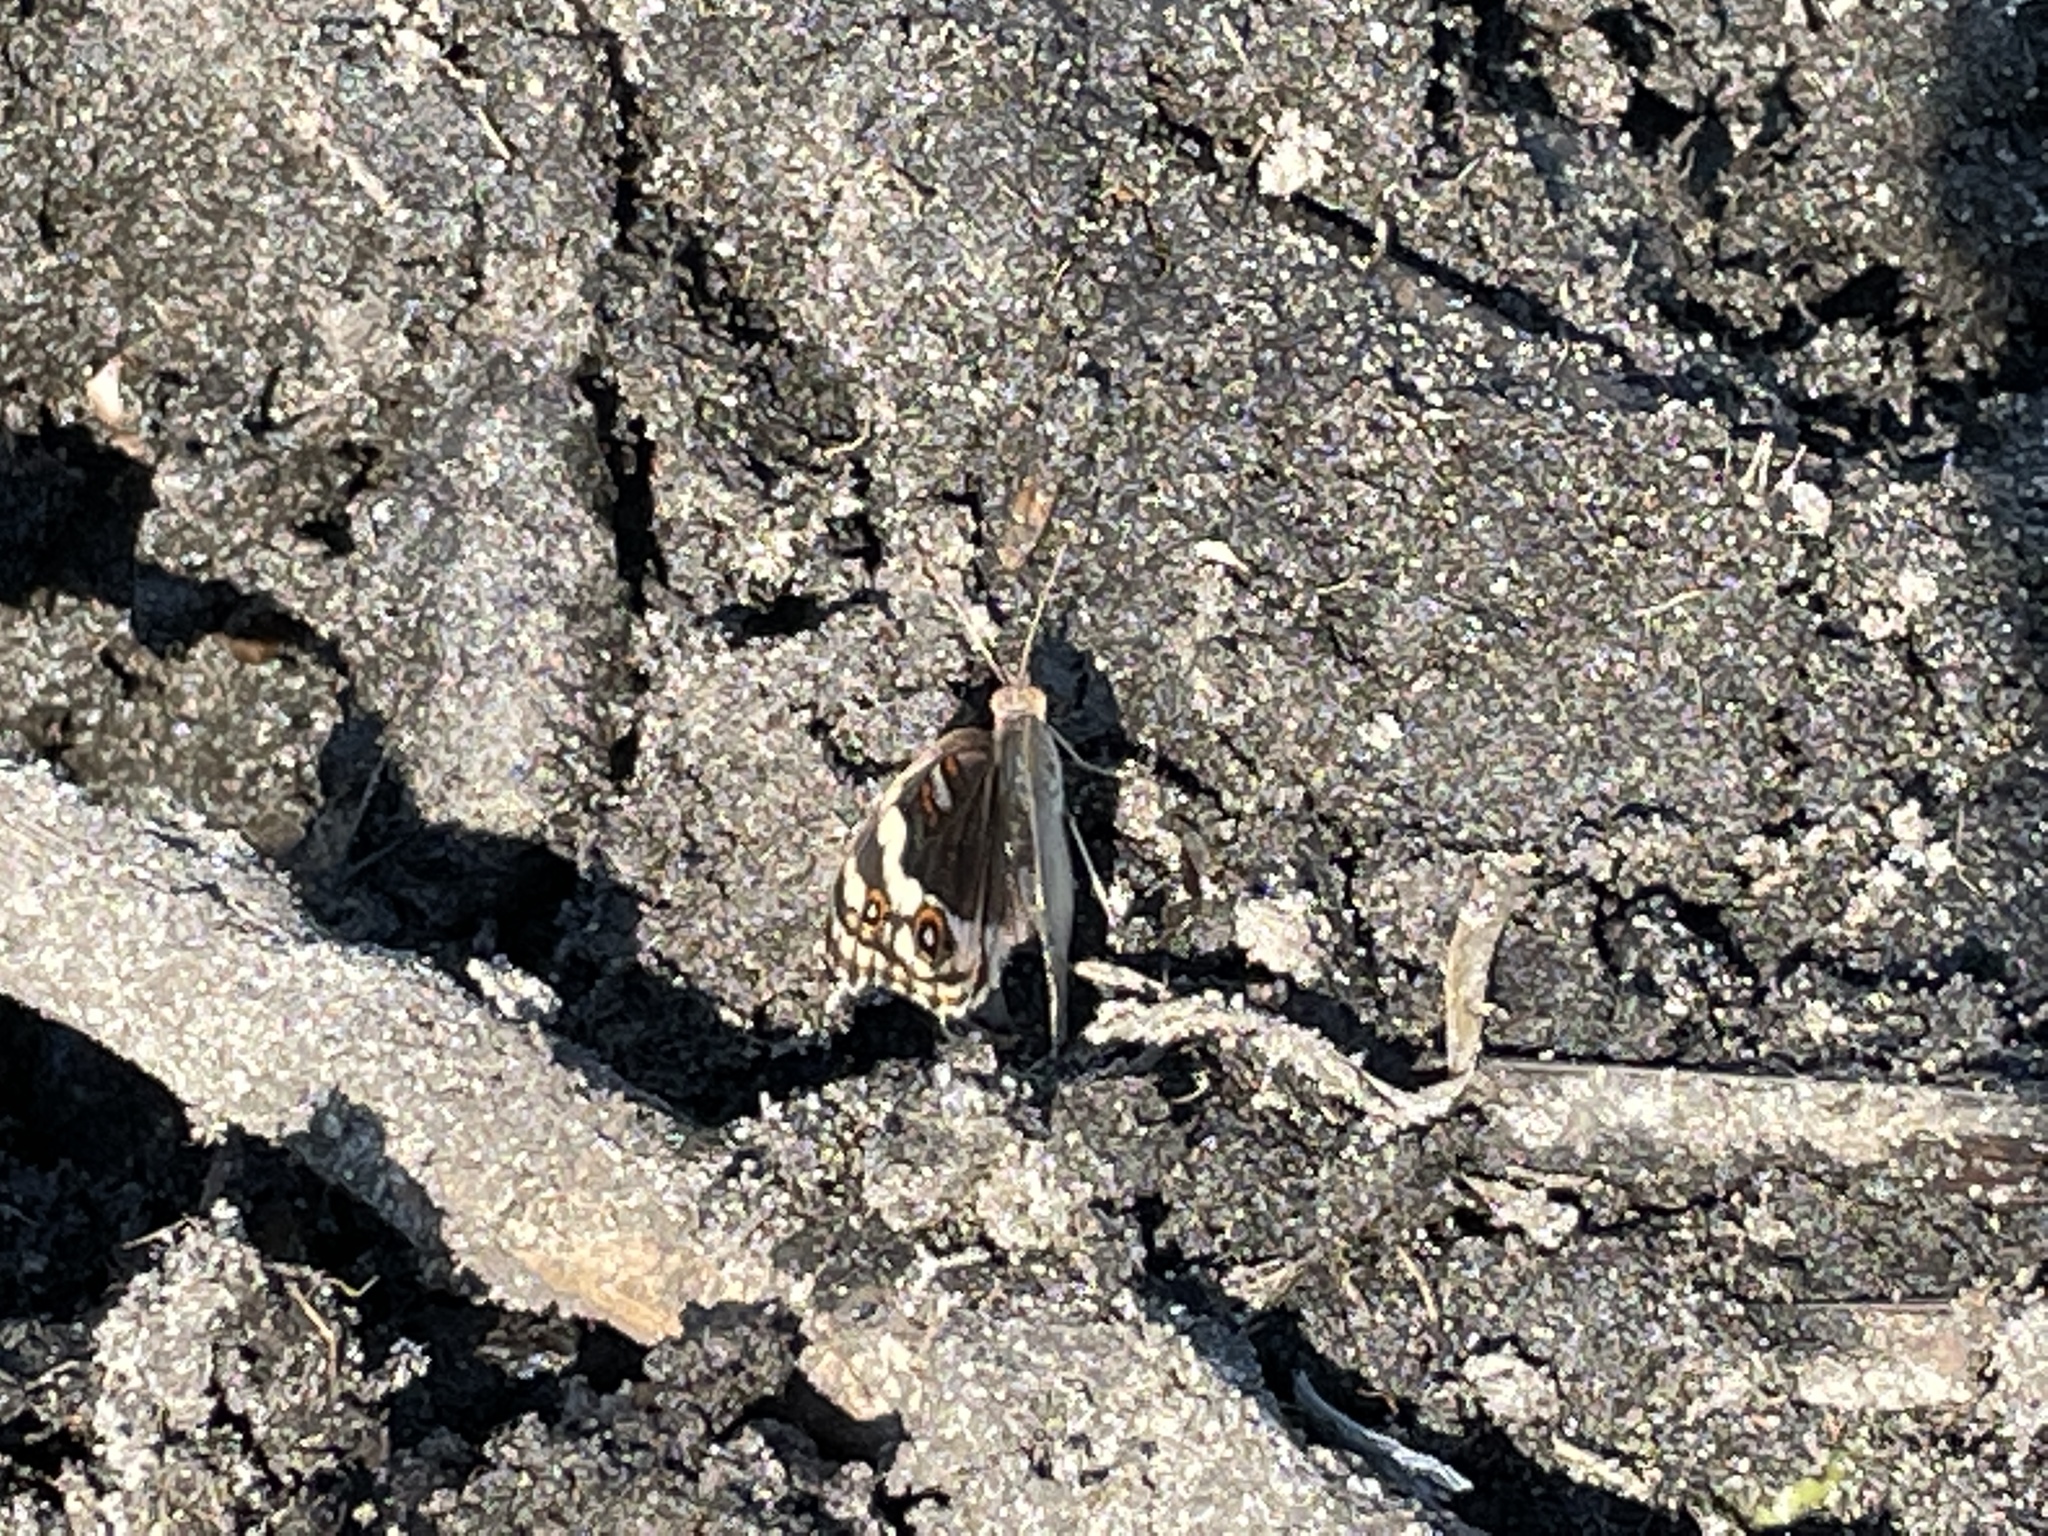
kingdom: Animalia
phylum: Arthropoda
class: Insecta
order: Lepidoptera
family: Nymphalidae
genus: Junonia
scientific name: Junonia orithya
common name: Blue pansy
